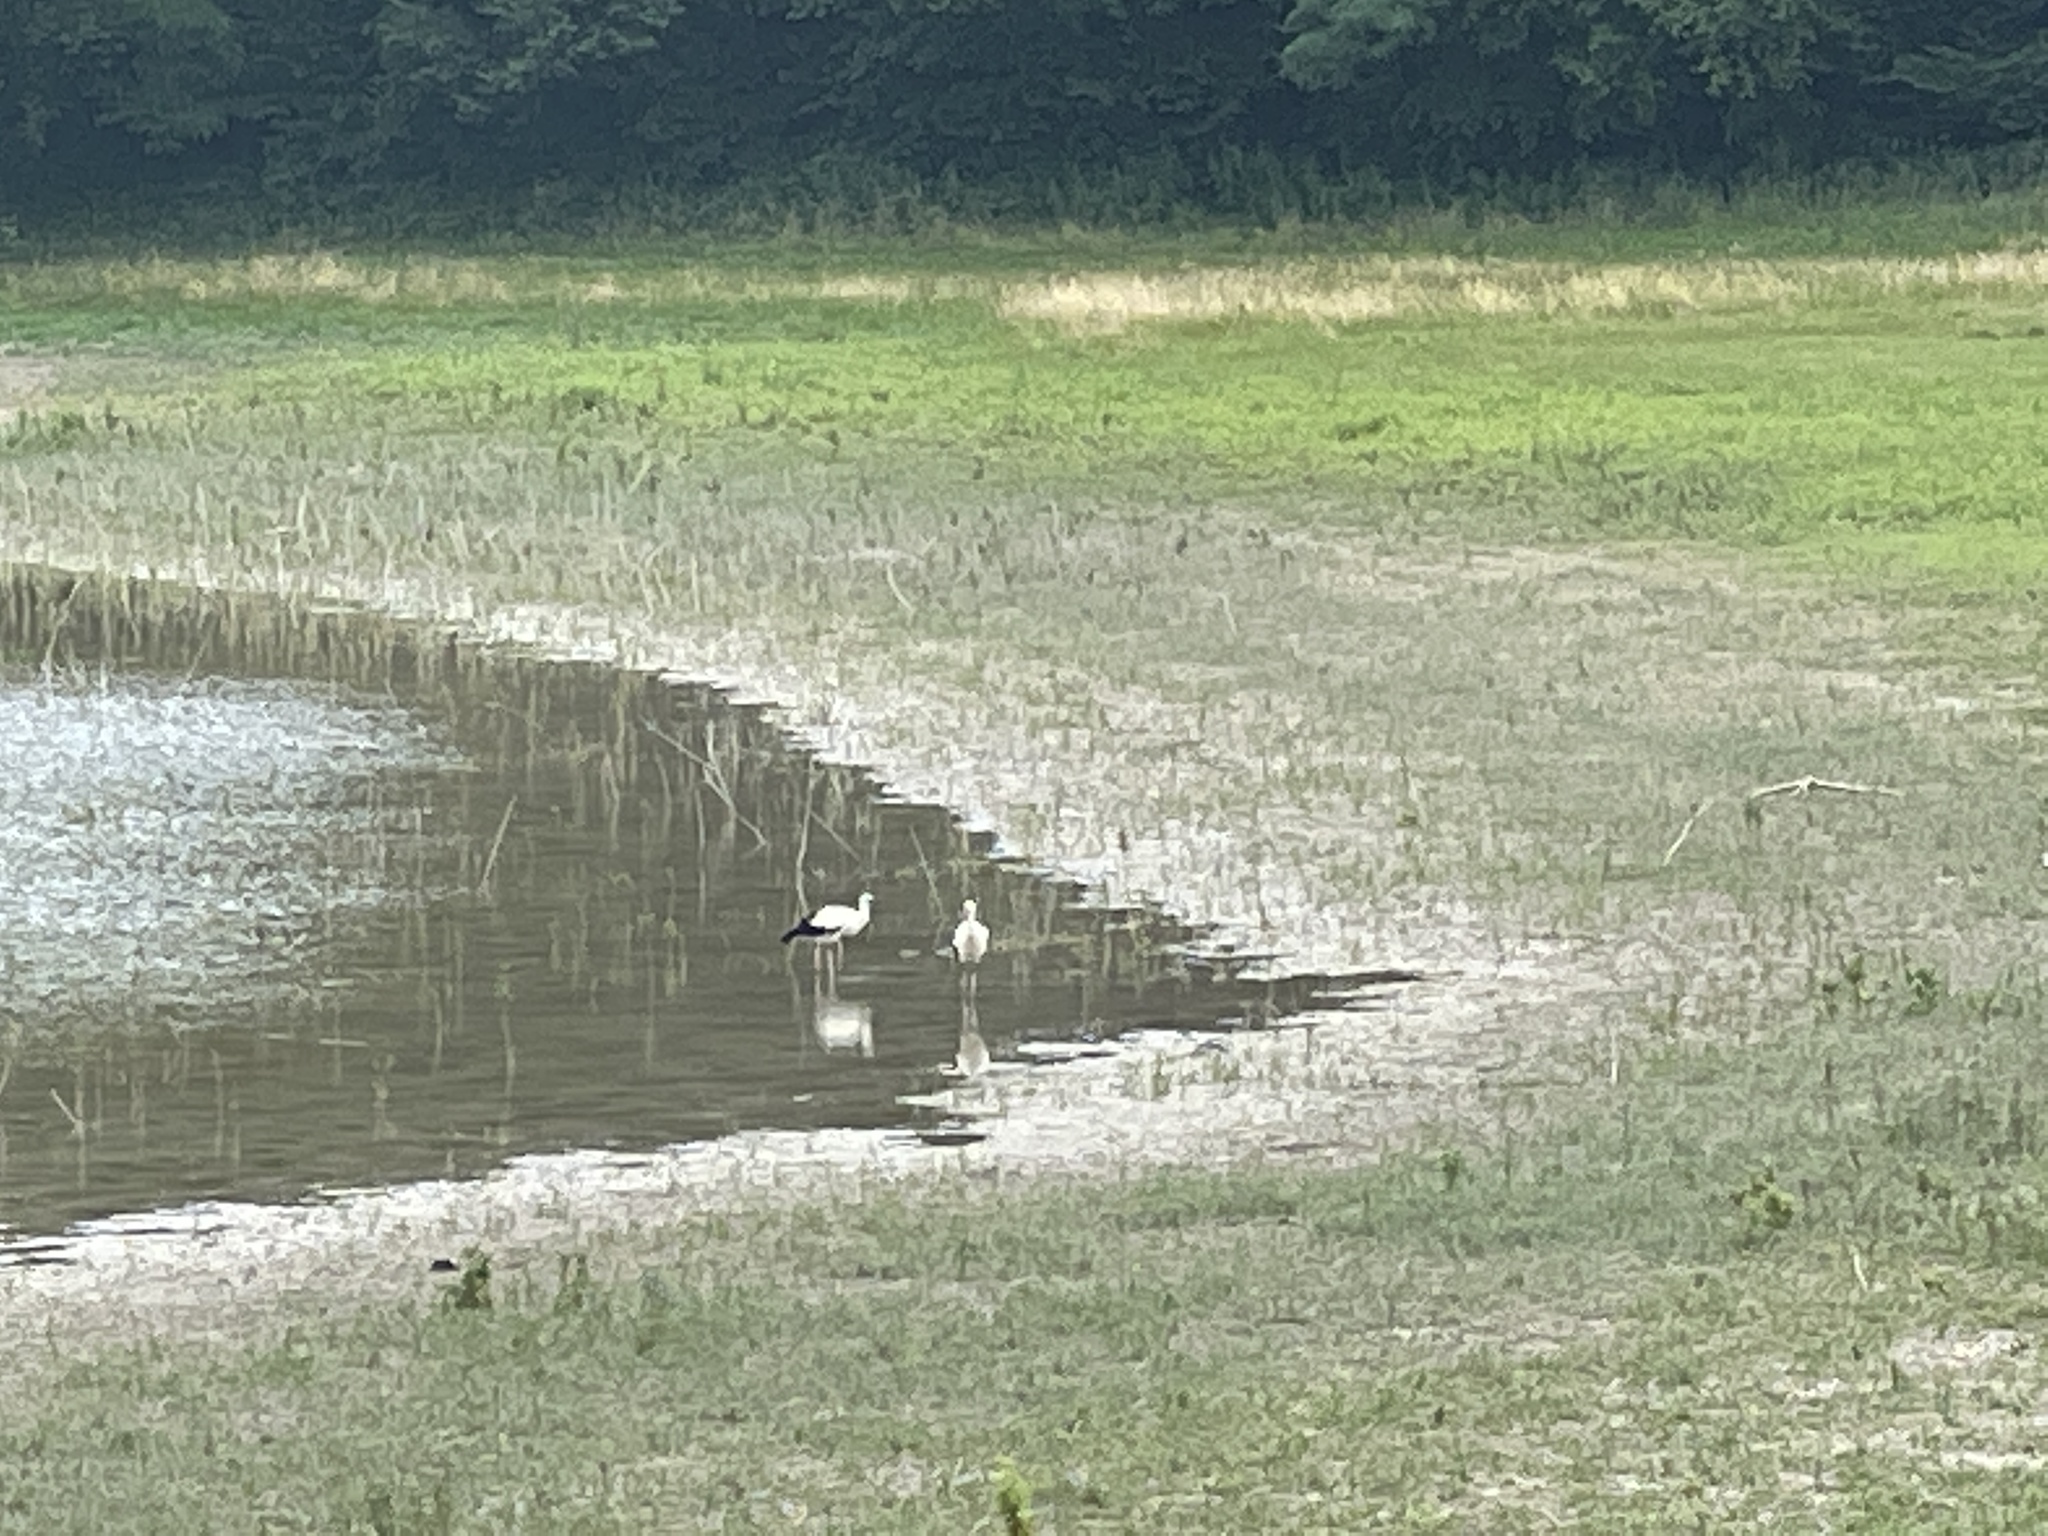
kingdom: Animalia
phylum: Chordata
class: Aves
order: Ciconiiformes
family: Ciconiidae
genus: Ciconia
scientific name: Ciconia ciconia
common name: White stork
